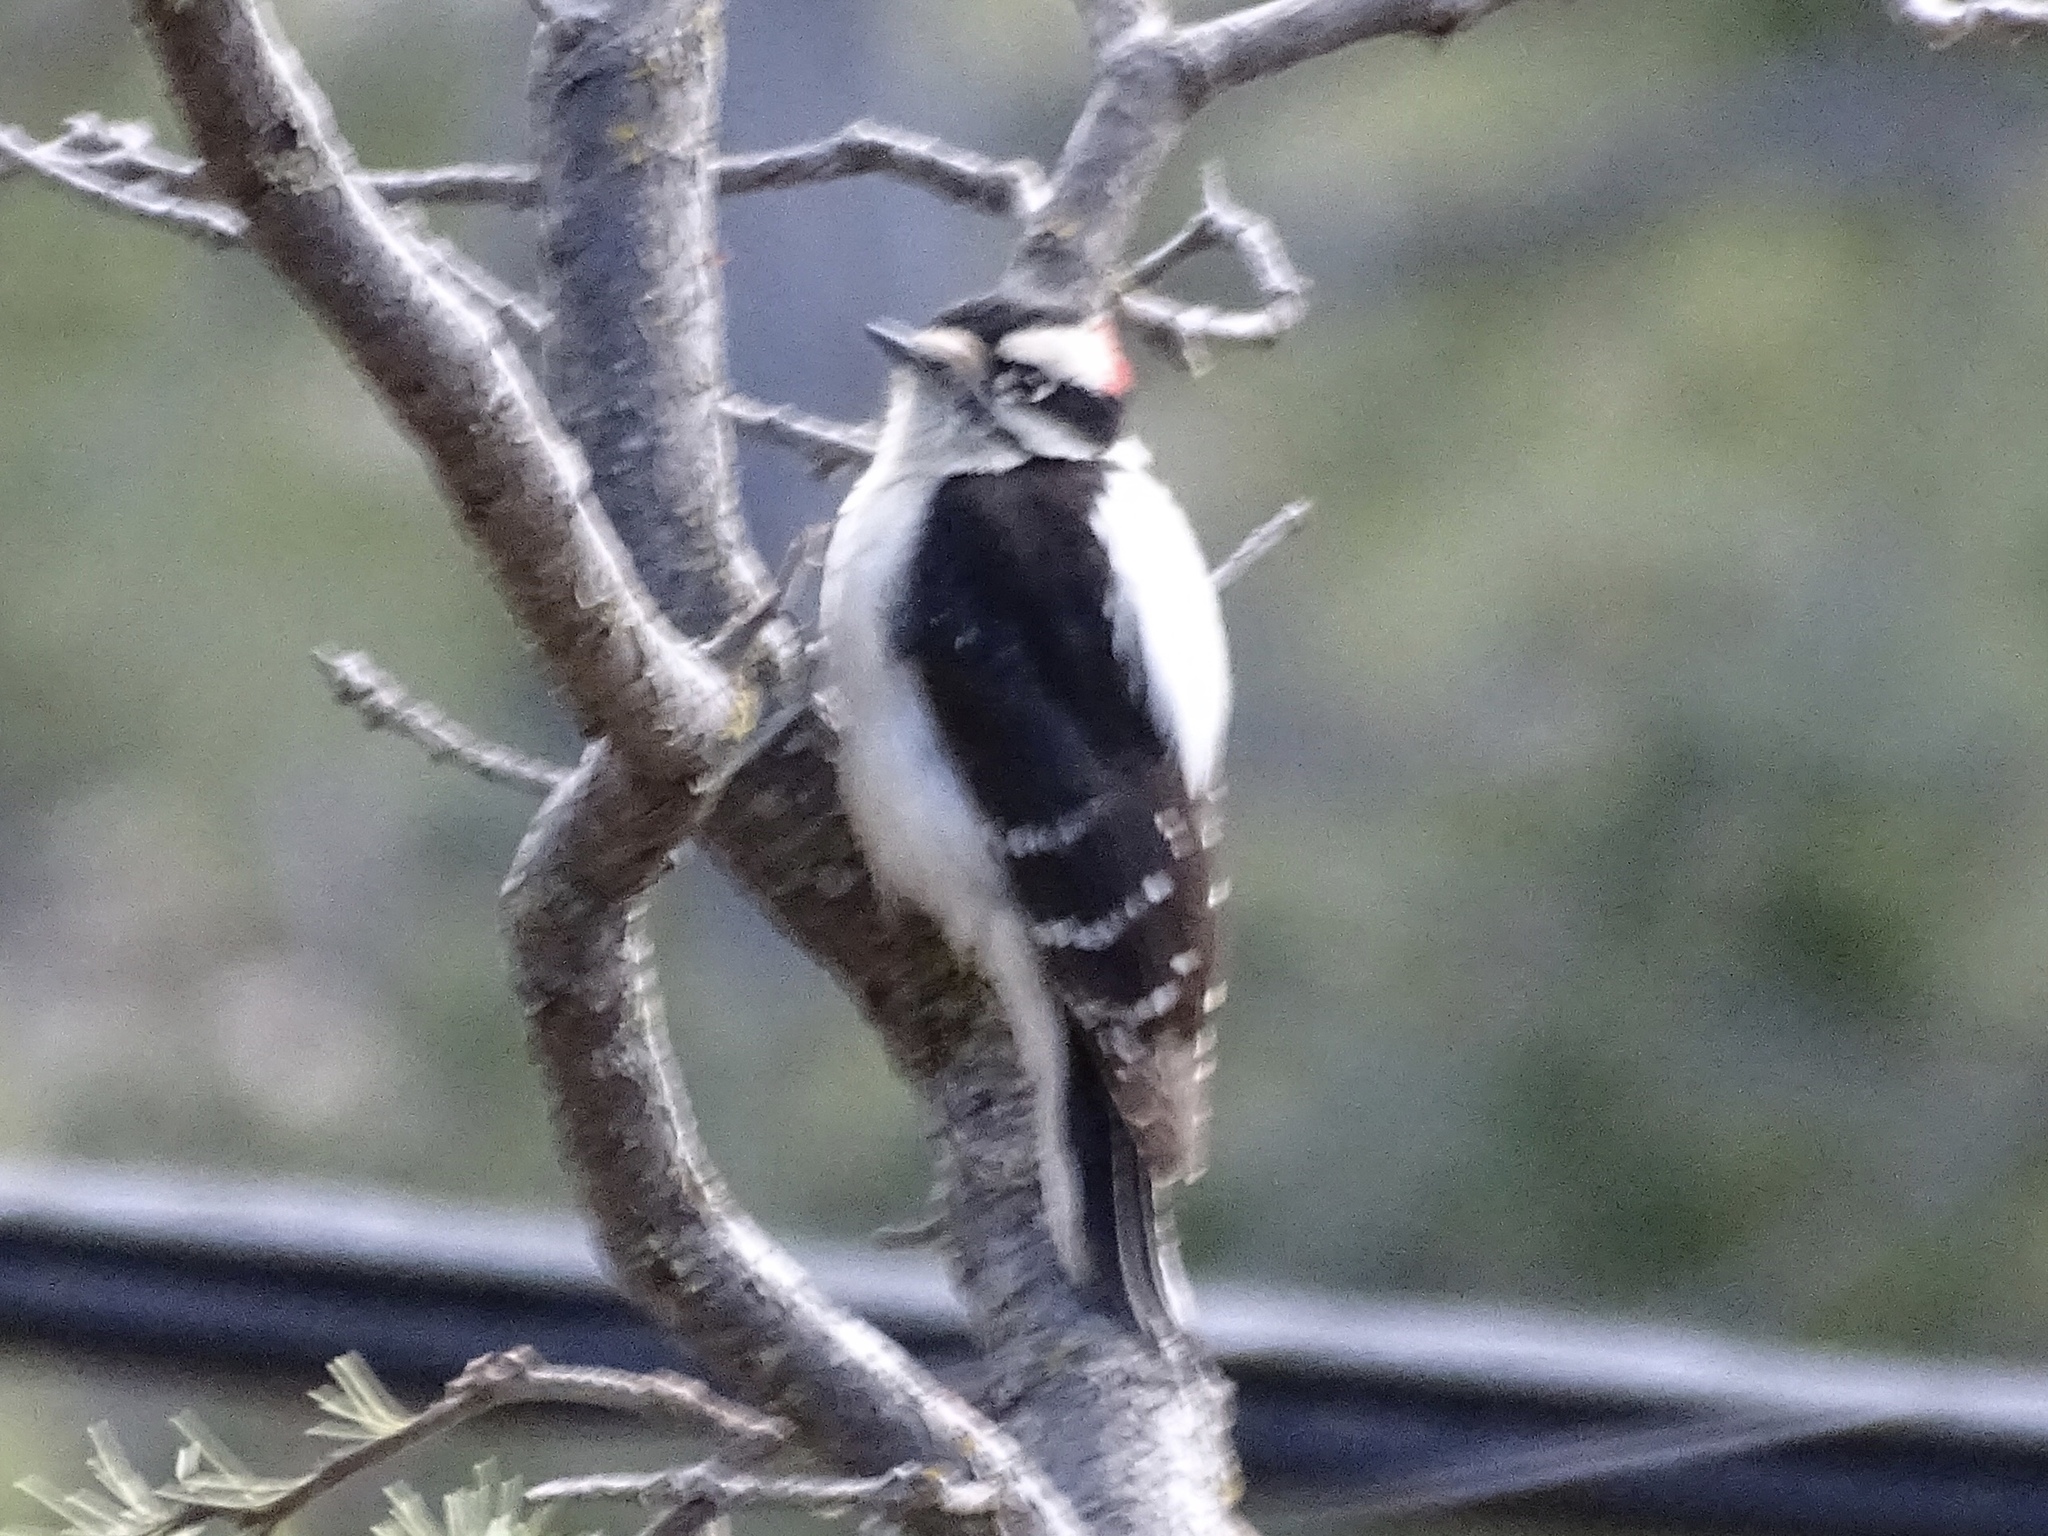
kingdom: Animalia
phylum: Chordata
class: Aves
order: Piciformes
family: Picidae
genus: Dryobates
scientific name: Dryobates pubescens
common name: Downy woodpecker
